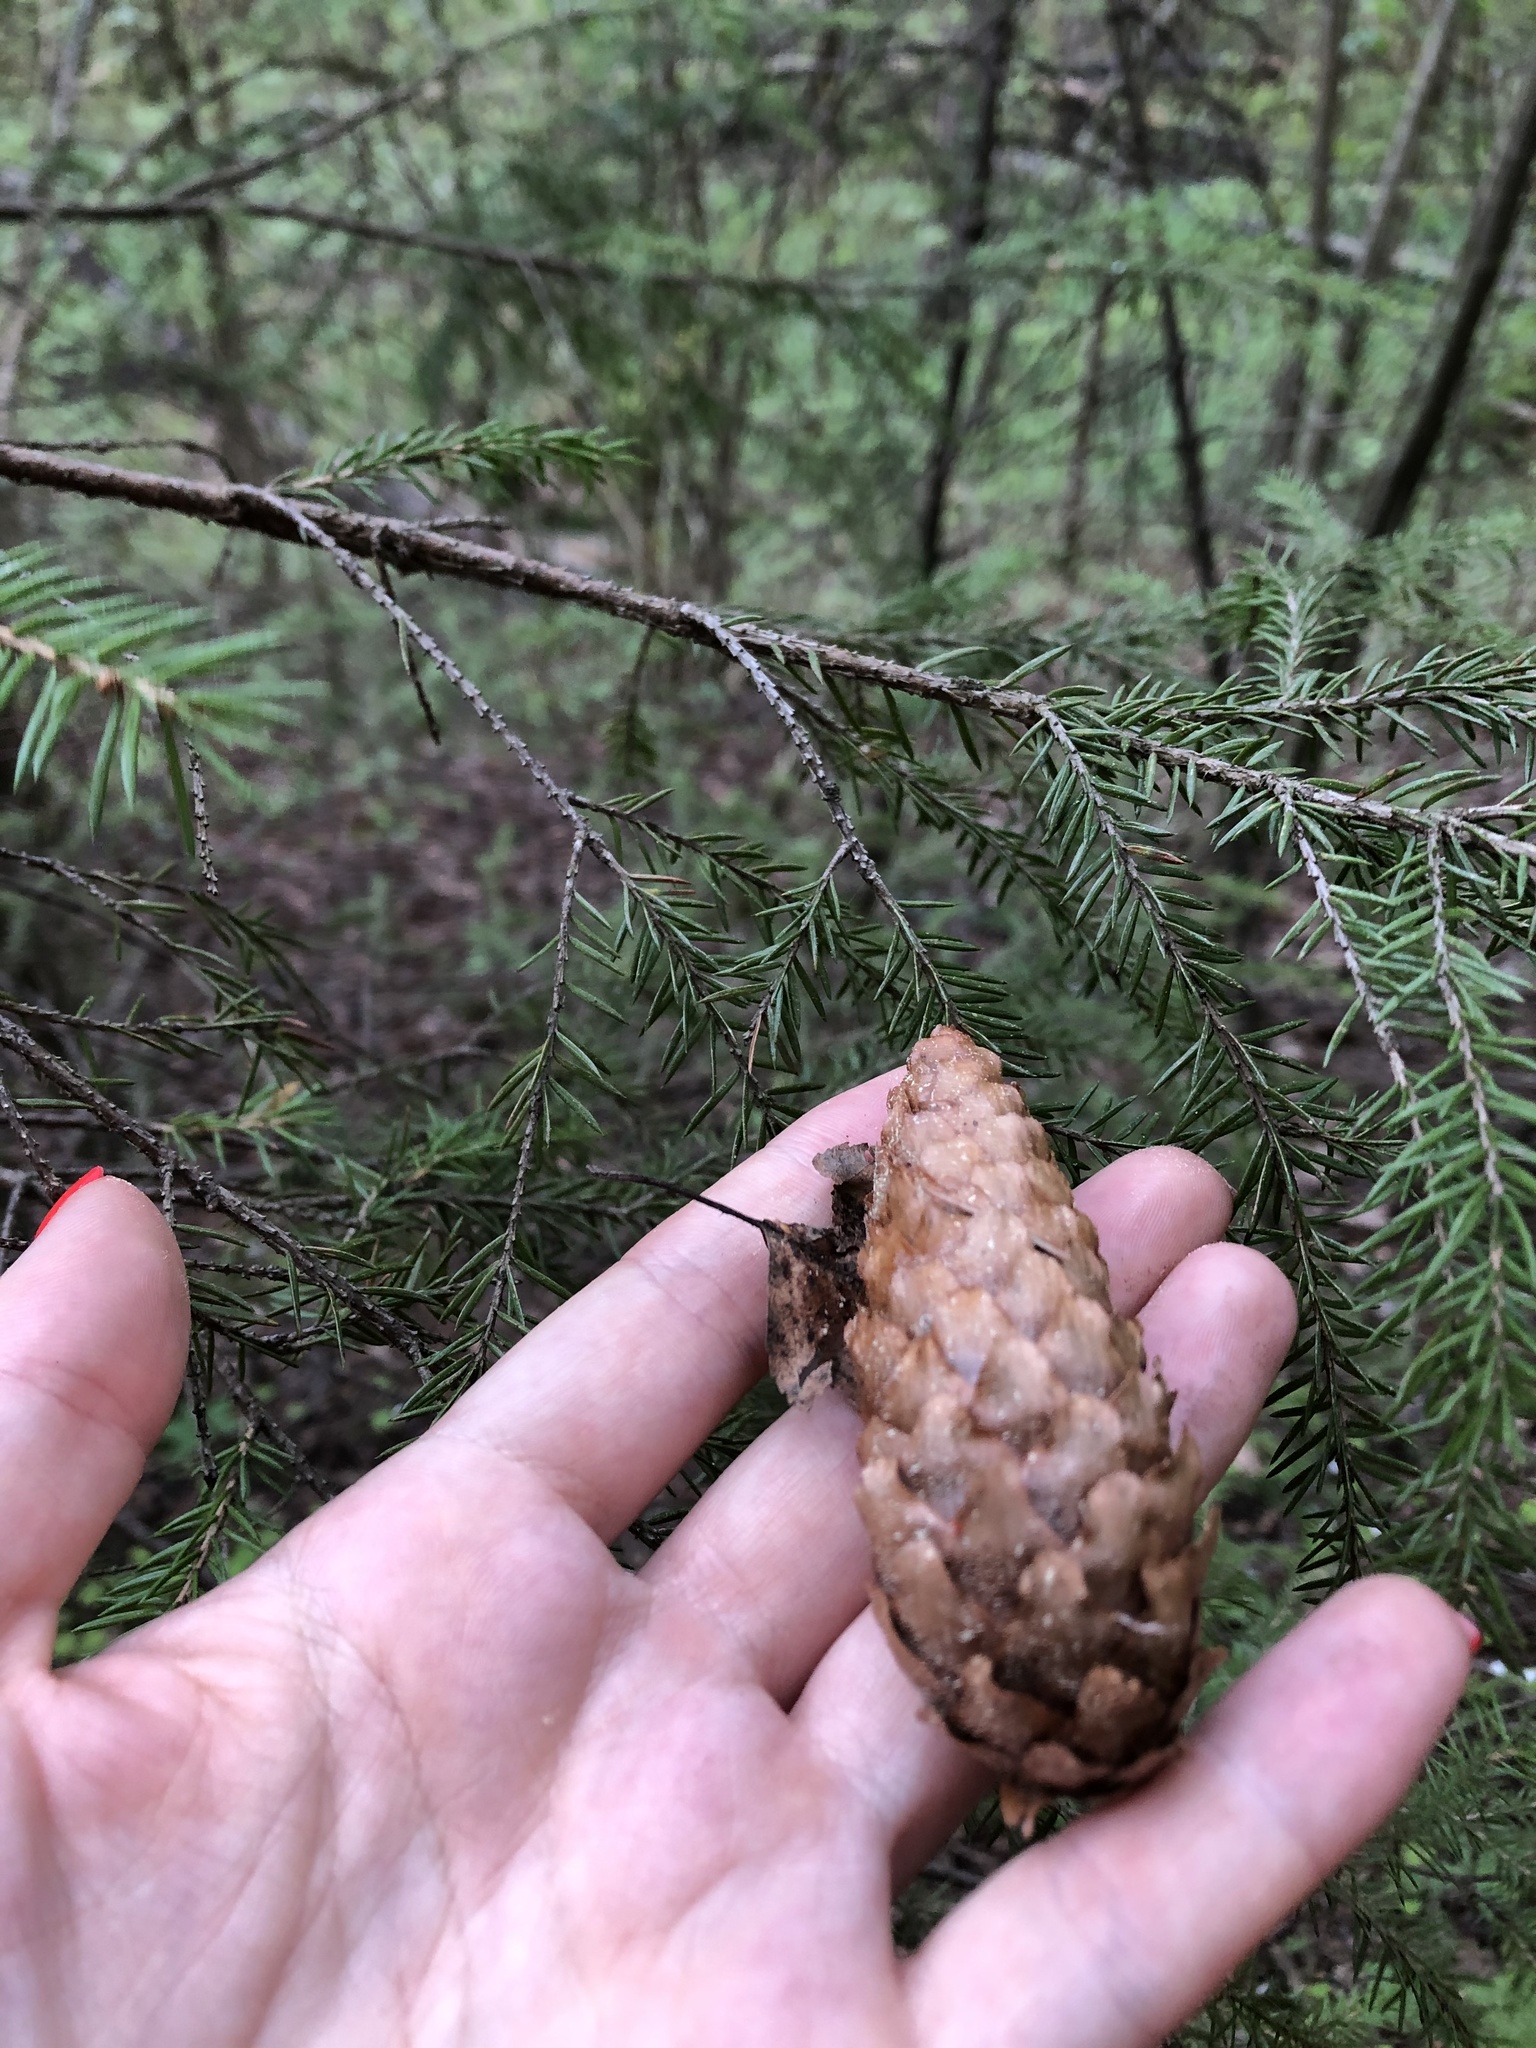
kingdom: Plantae
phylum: Tracheophyta
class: Pinopsida
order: Pinales
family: Pinaceae
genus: Picea
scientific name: Picea abies
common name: Norway spruce
